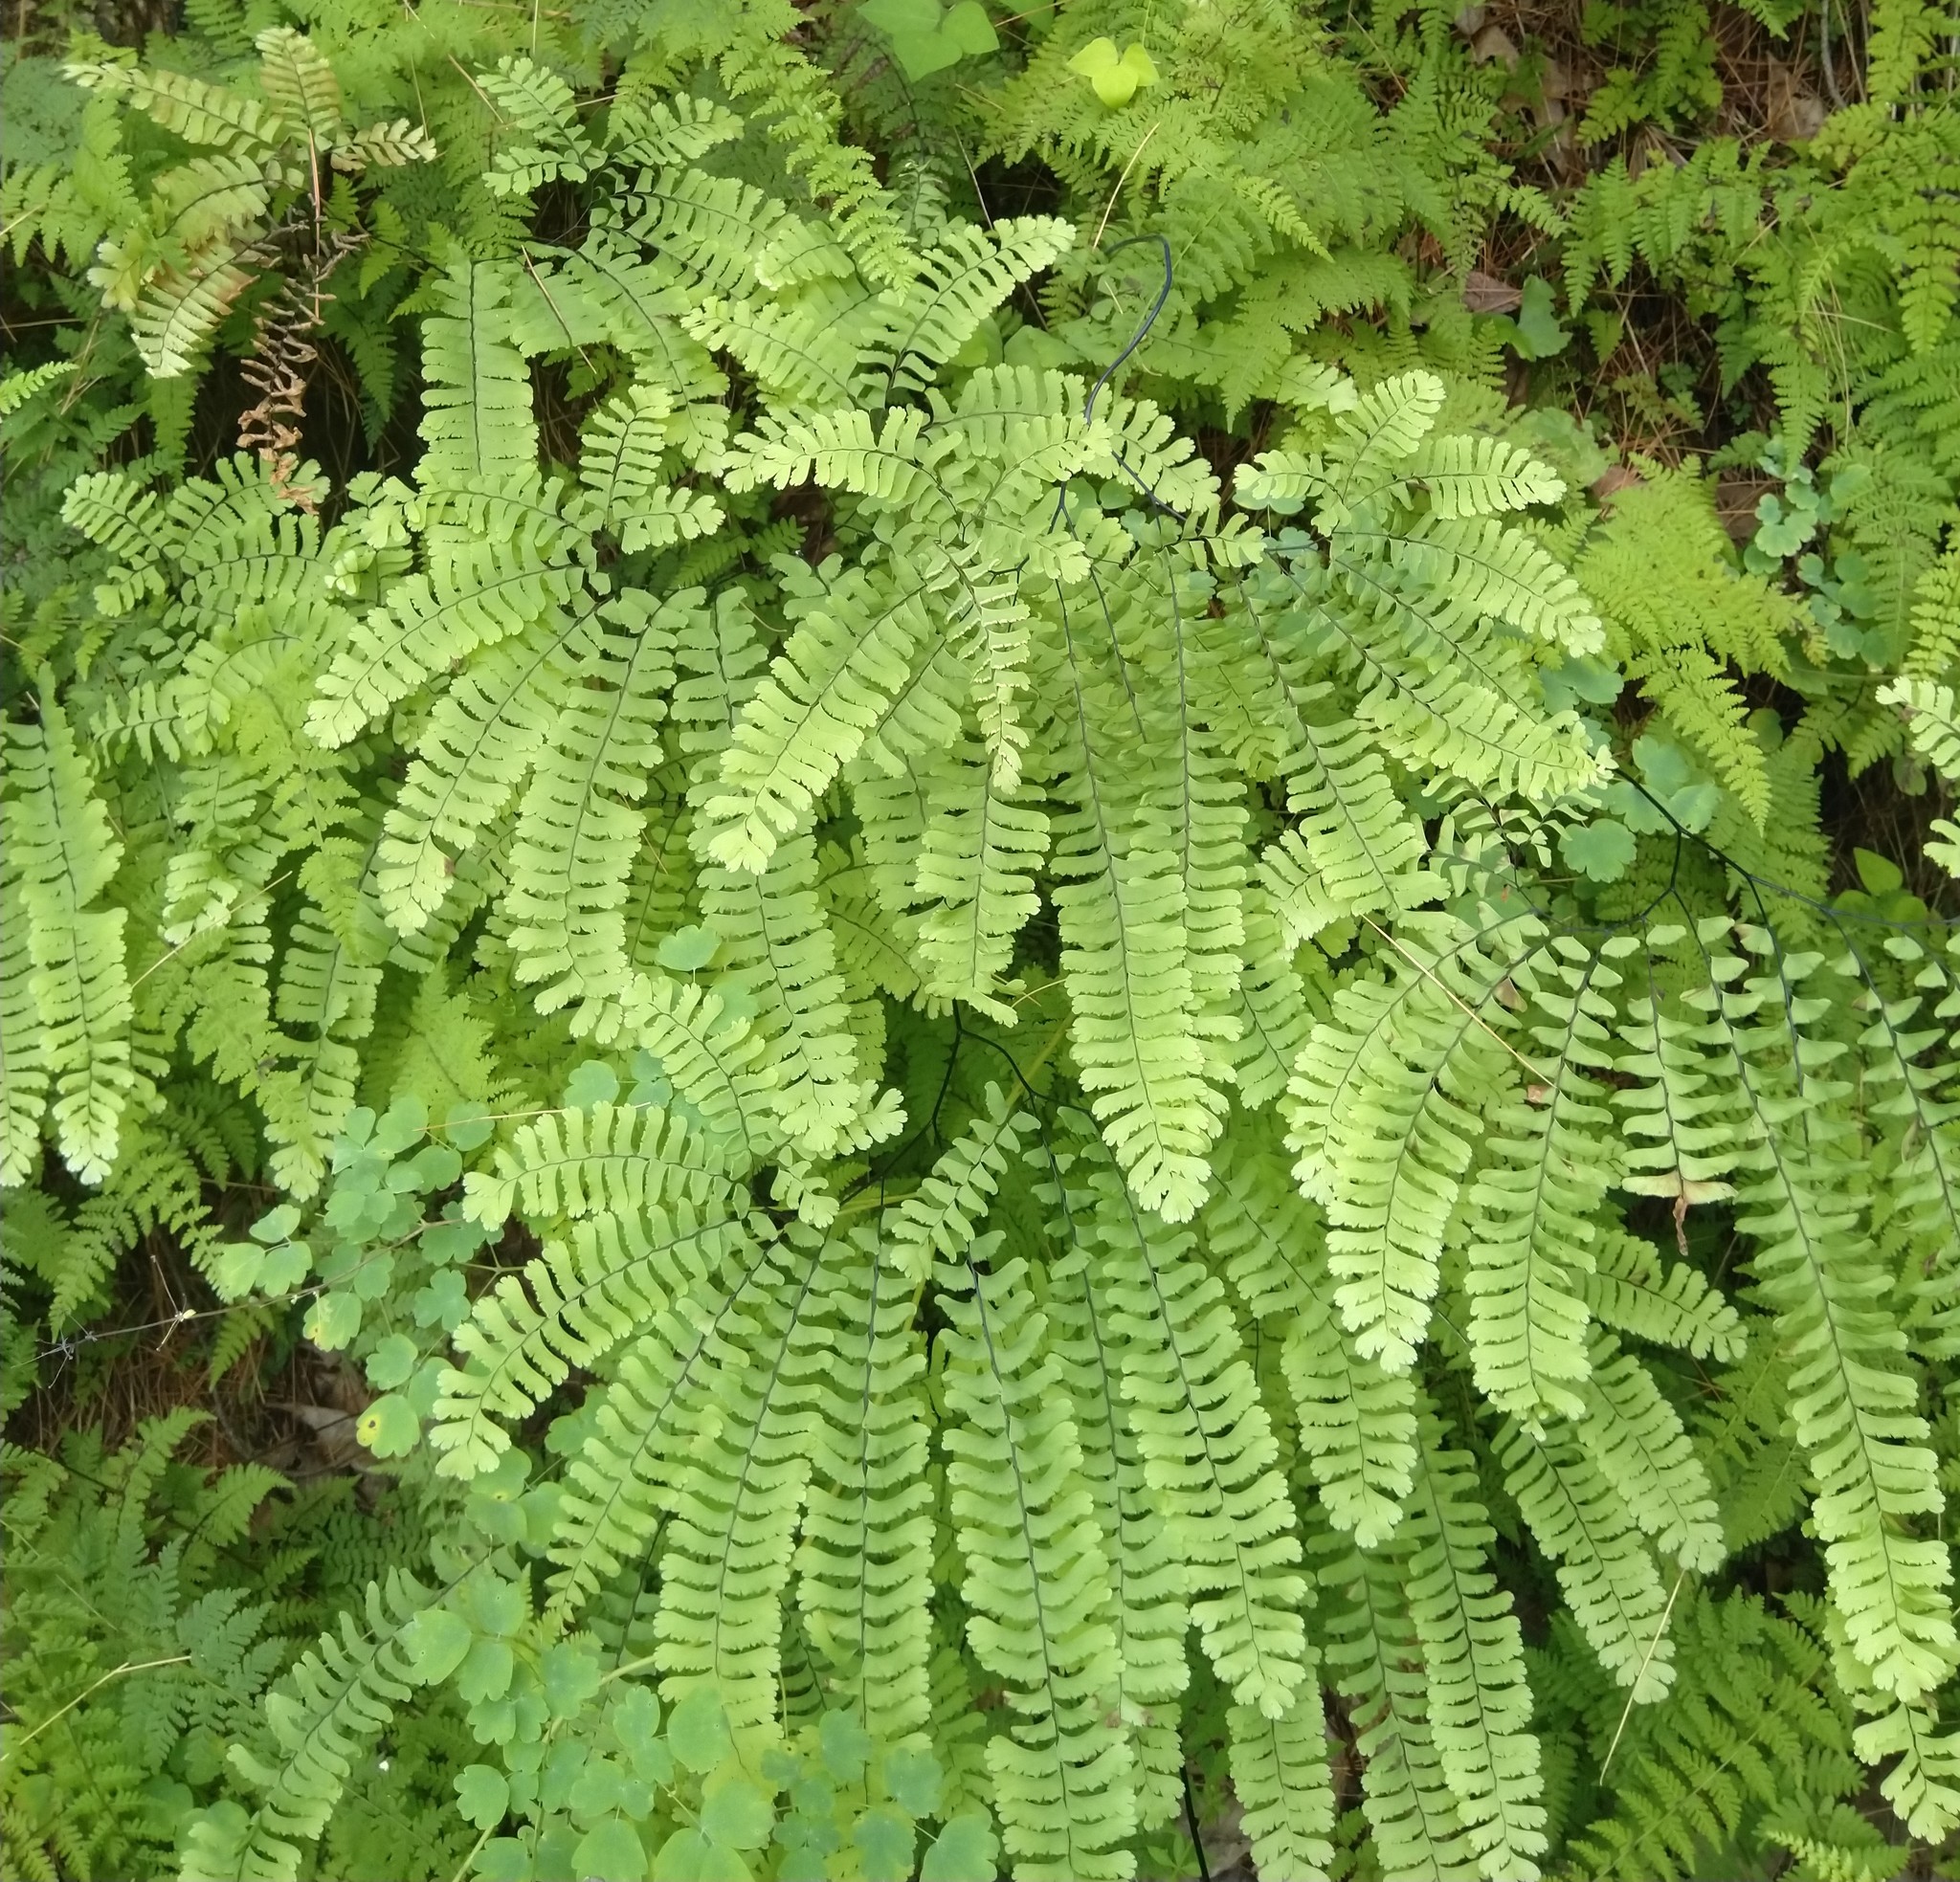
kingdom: Plantae
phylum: Tracheophyta
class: Polypodiopsida
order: Polypodiales
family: Pteridaceae
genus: Adiantum
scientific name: Adiantum pedatum
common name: Five-finger fern
